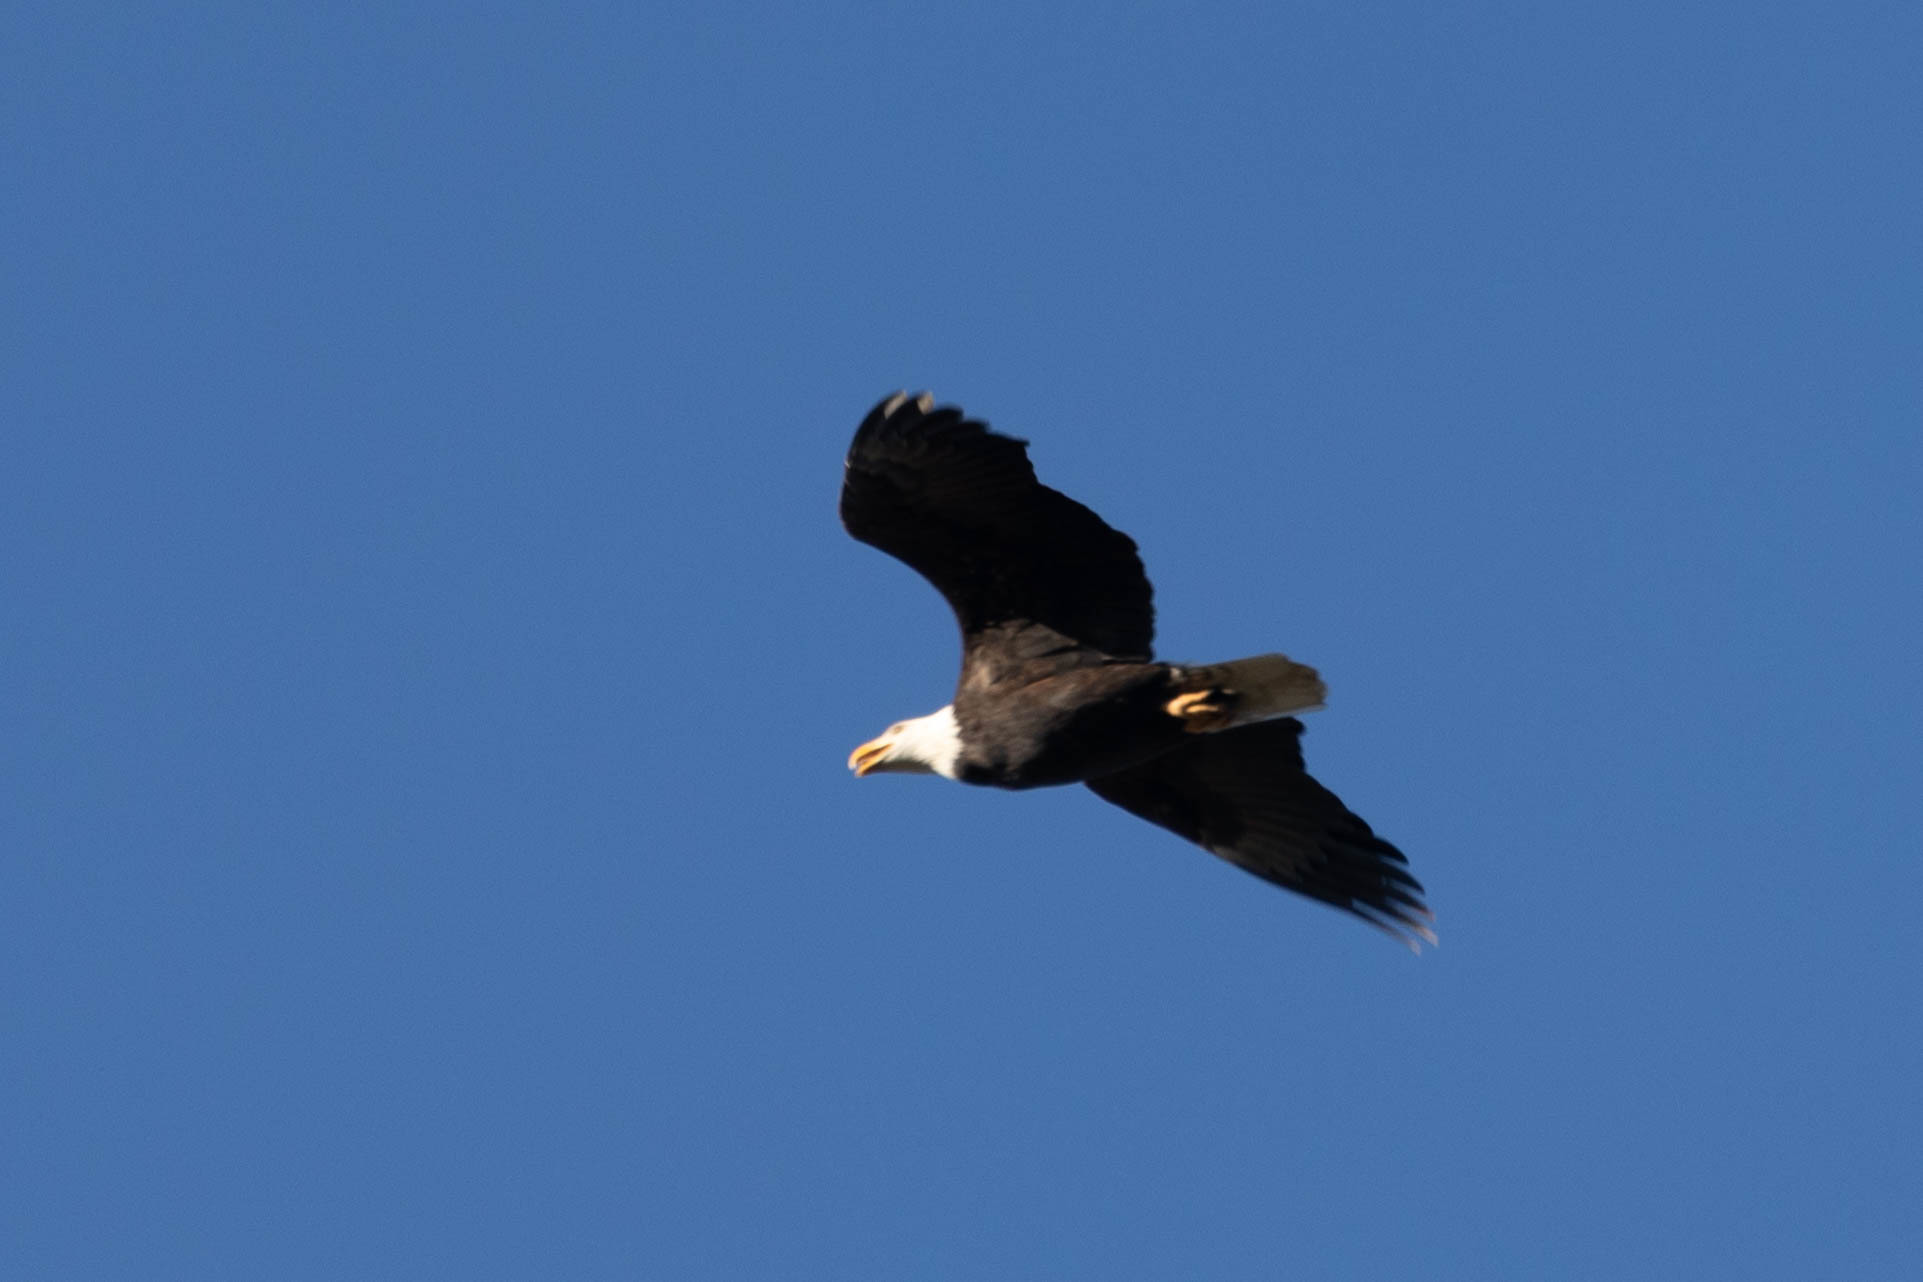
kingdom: Animalia
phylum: Chordata
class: Aves
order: Accipitriformes
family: Accipitridae
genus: Haliaeetus
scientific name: Haliaeetus leucocephalus
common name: Bald eagle
